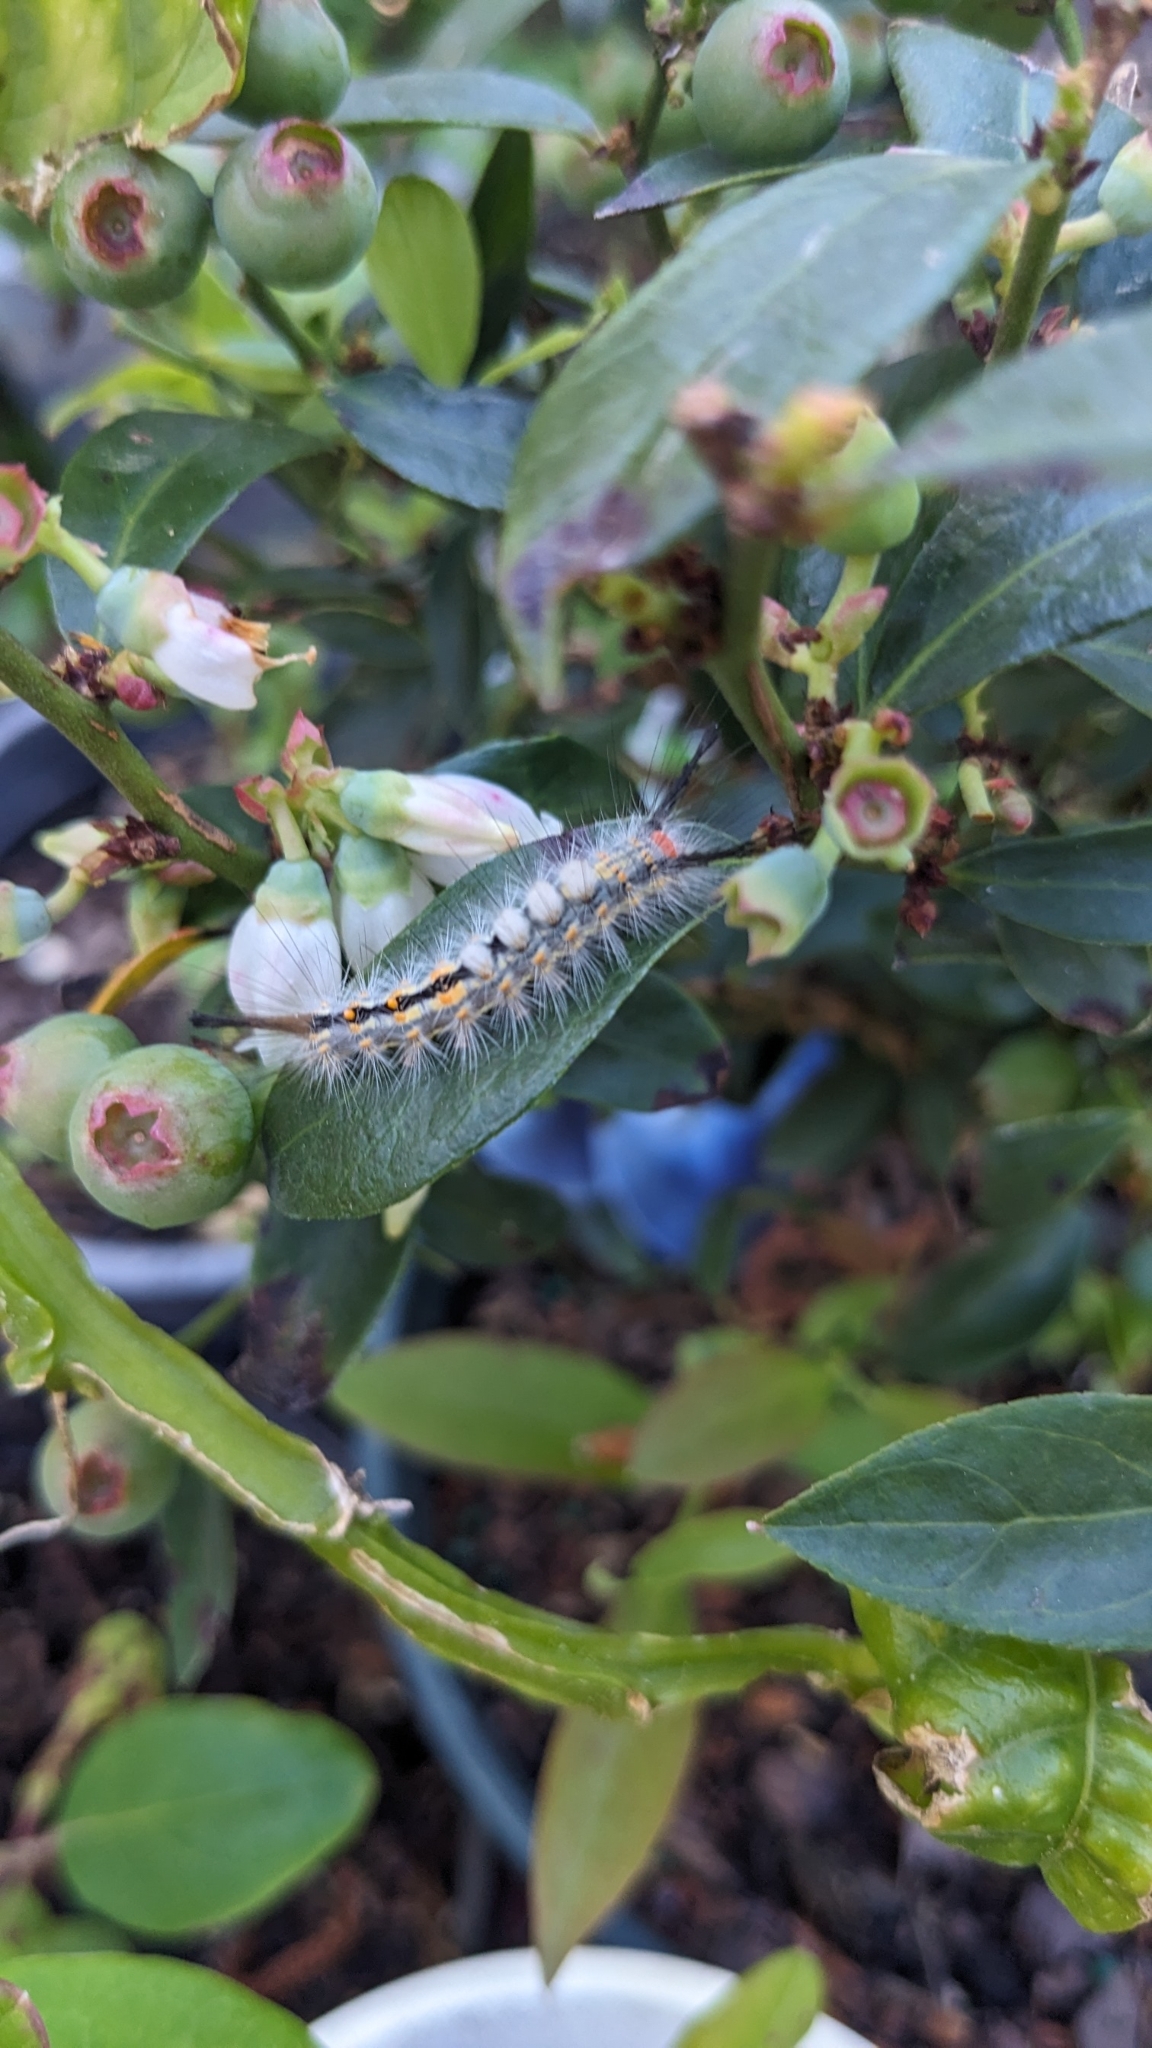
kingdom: Animalia
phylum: Arthropoda
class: Insecta
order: Lepidoptera
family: Erebidae
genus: Orgyia
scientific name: Orgyia detrita
